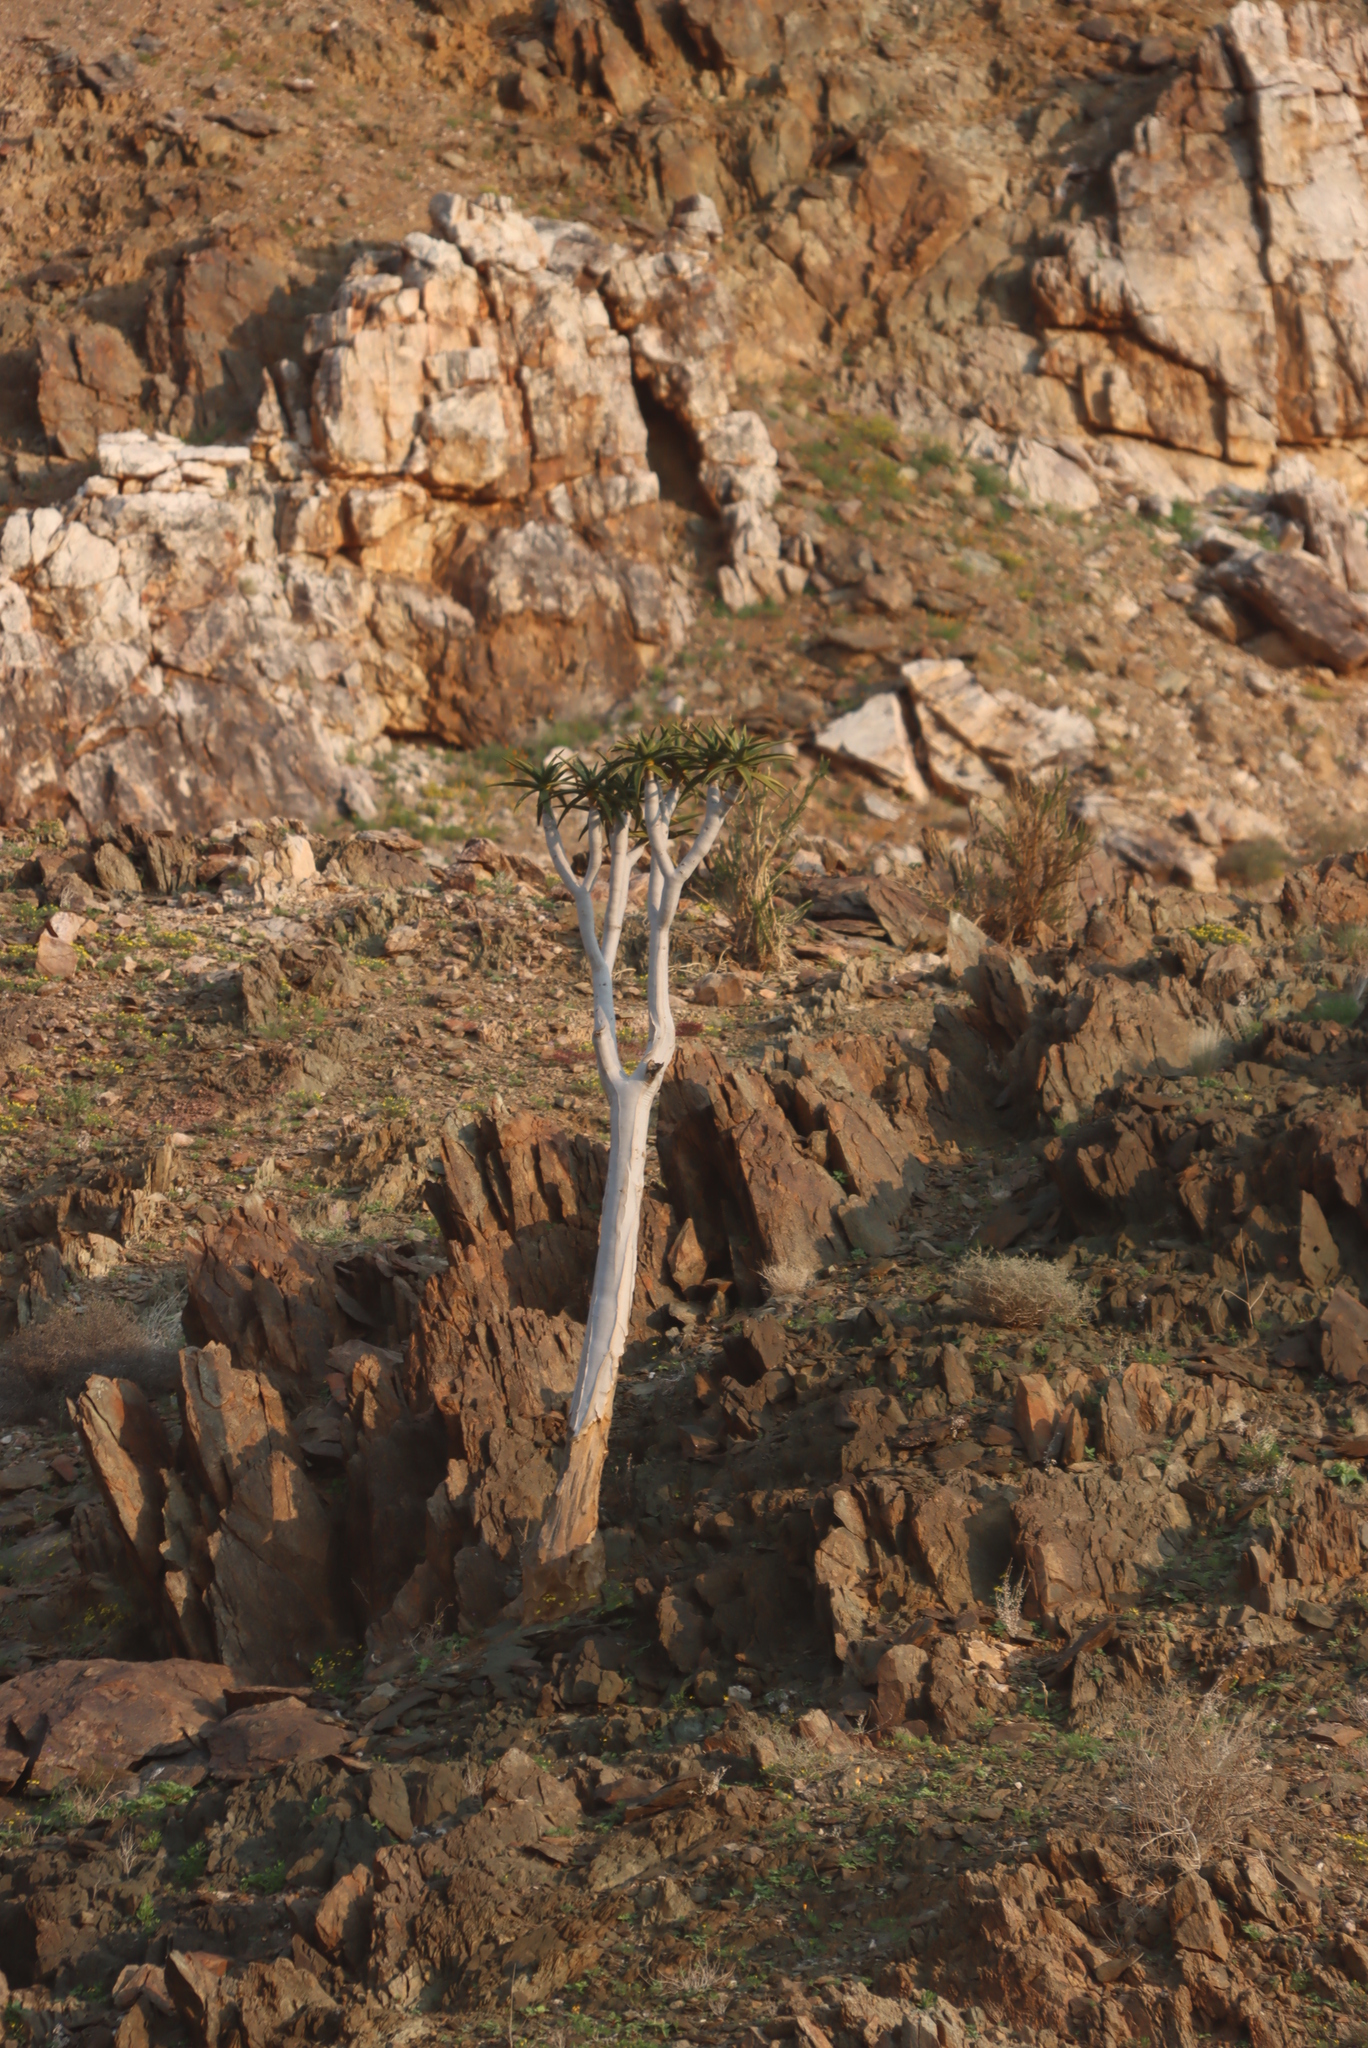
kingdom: Plantae
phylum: Tracheophyta
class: Liliopsida
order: Asparagales
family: Asphodelaceae
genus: Aloidendron
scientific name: Aloidendron pillansii
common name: Bastard quiver tree
